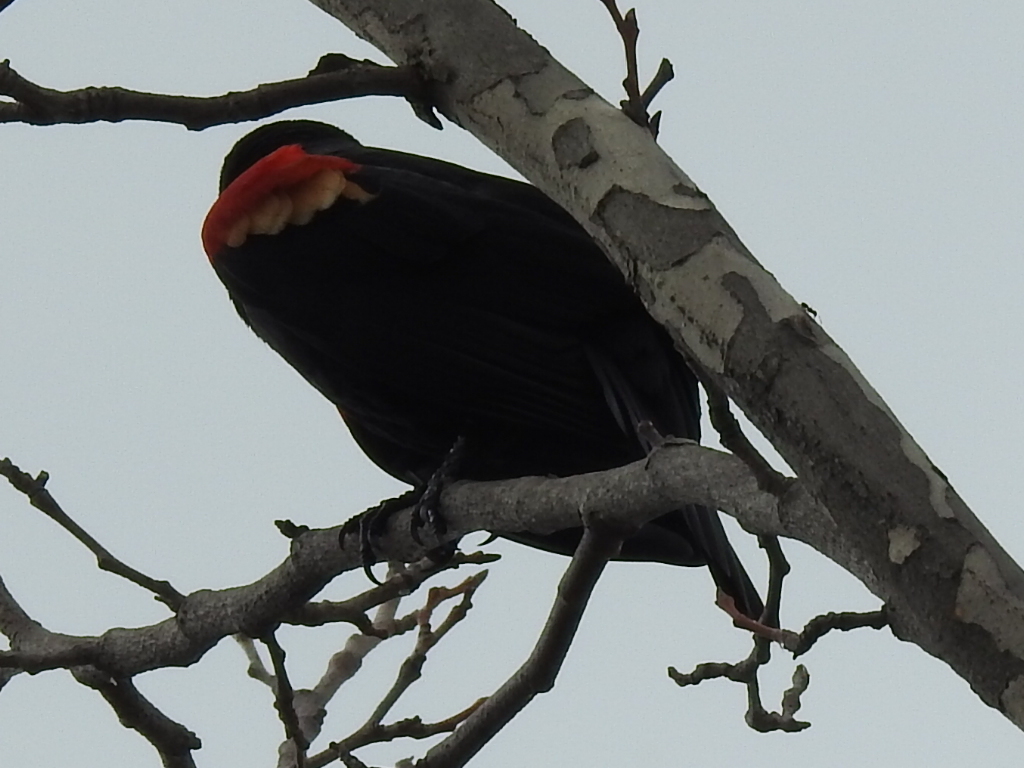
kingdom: Animalia
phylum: Chordata
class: Aves
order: Passeriformes
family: Icteridae
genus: Agelaius
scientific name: Agelaius phoeniceus
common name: Red-winged blackbird
